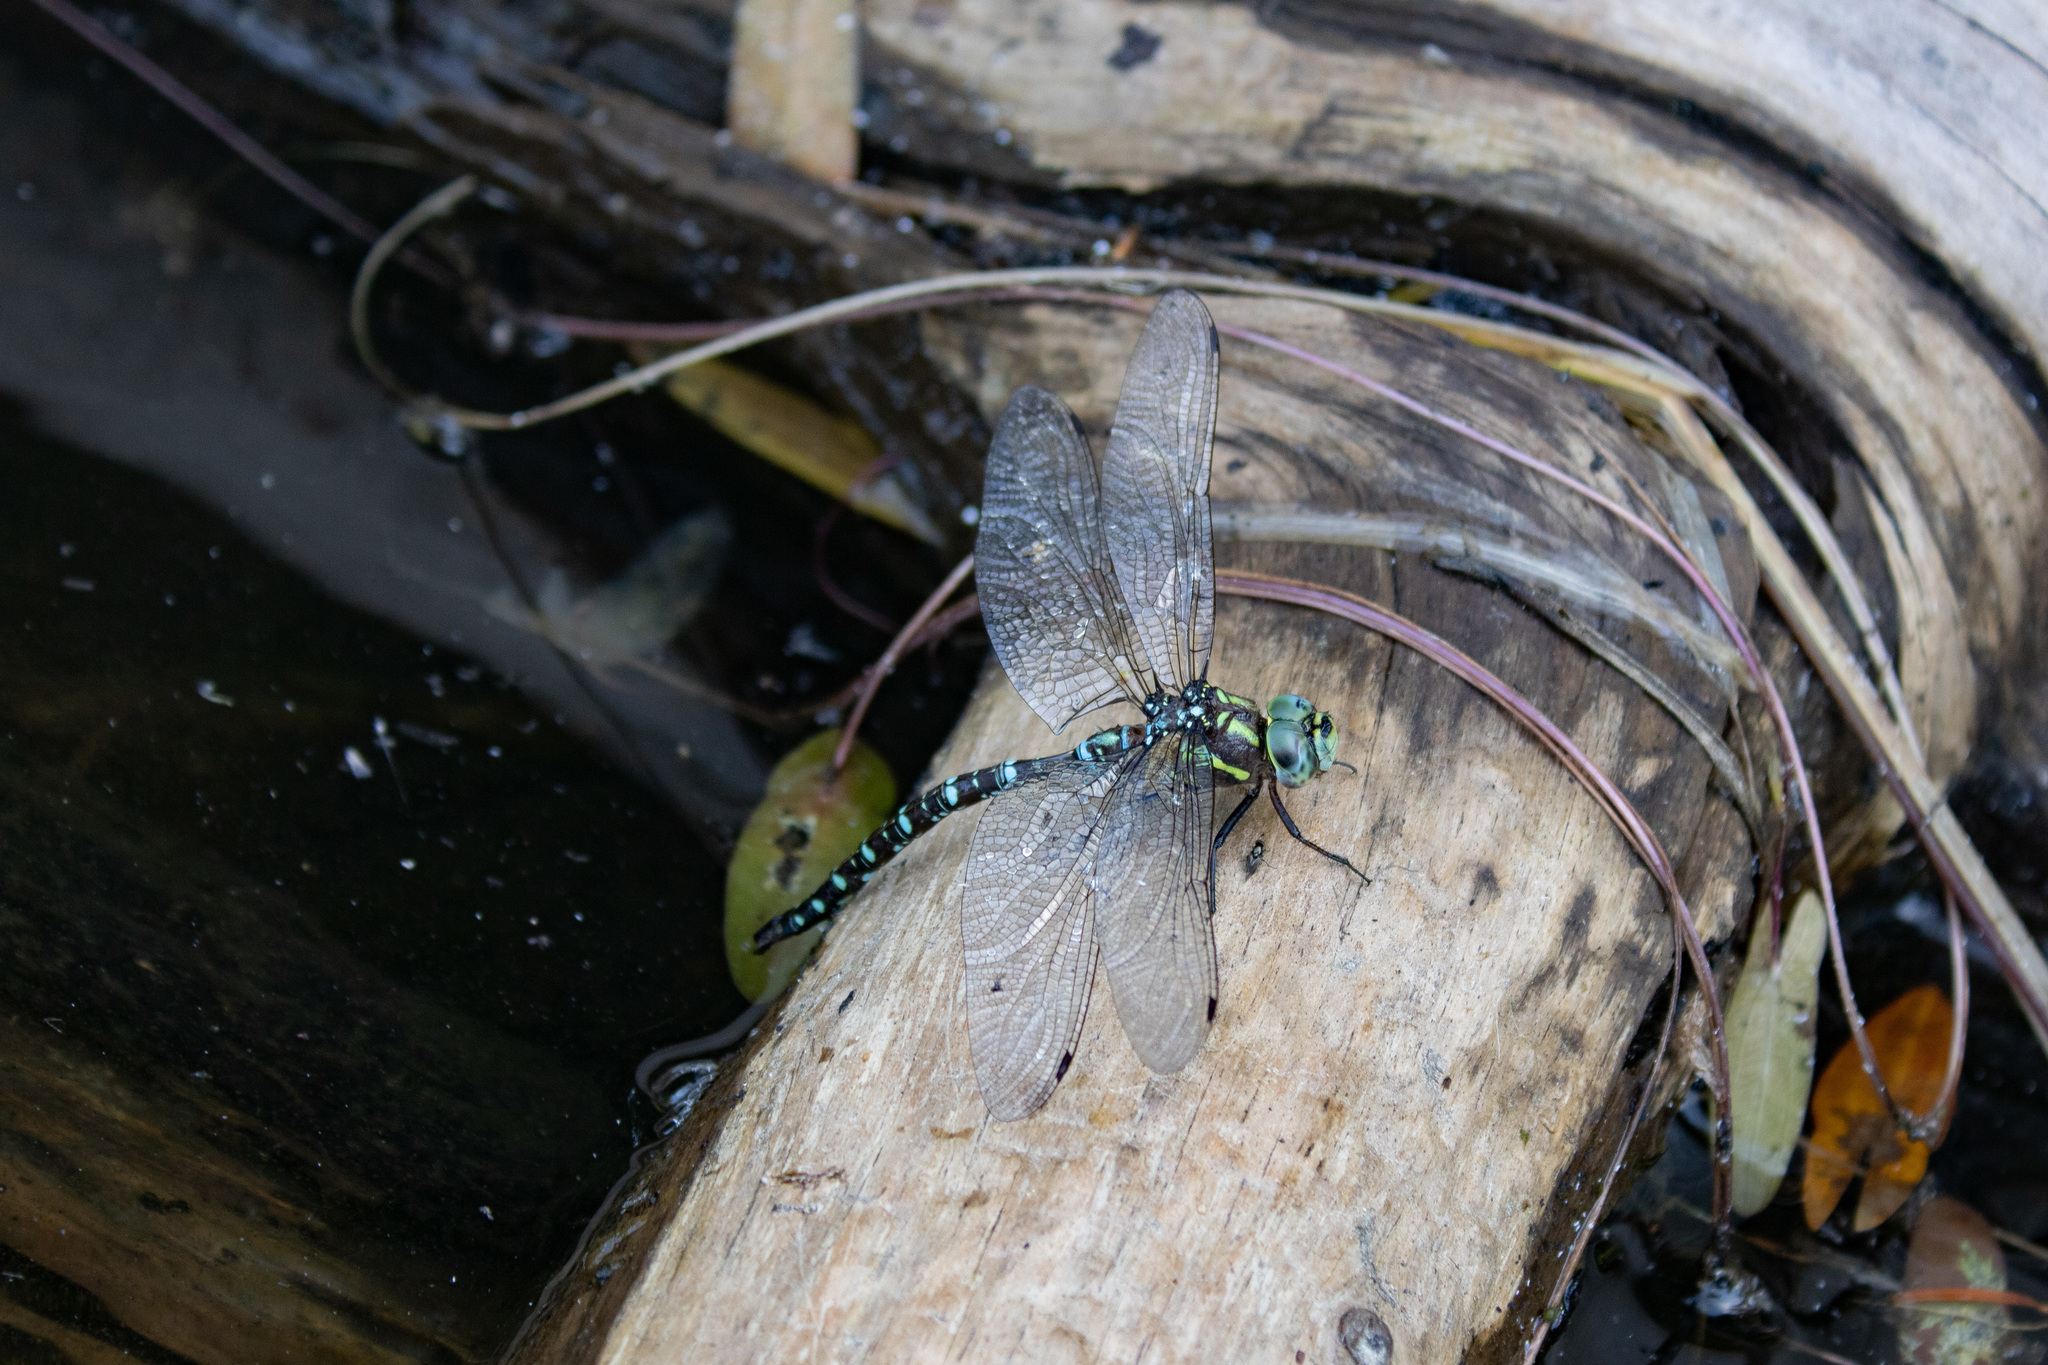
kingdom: Animalia
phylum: Arthropoda
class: Insecta
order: Odonata
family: Aeshnidae
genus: Aeshna
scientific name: Aeshna umbrosa
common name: Shadow darner
